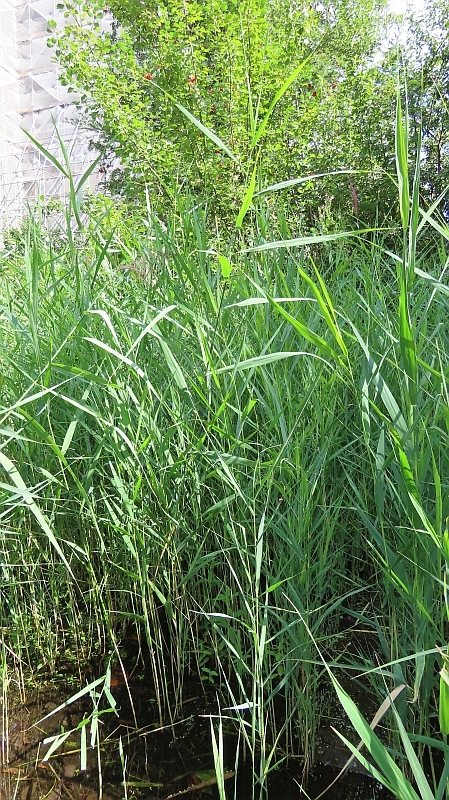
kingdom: Plantae
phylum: Tracheophyta
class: Liliopsida
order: Poales
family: Poaceae
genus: Phragmites
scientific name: Phragmites australis
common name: Common reed
